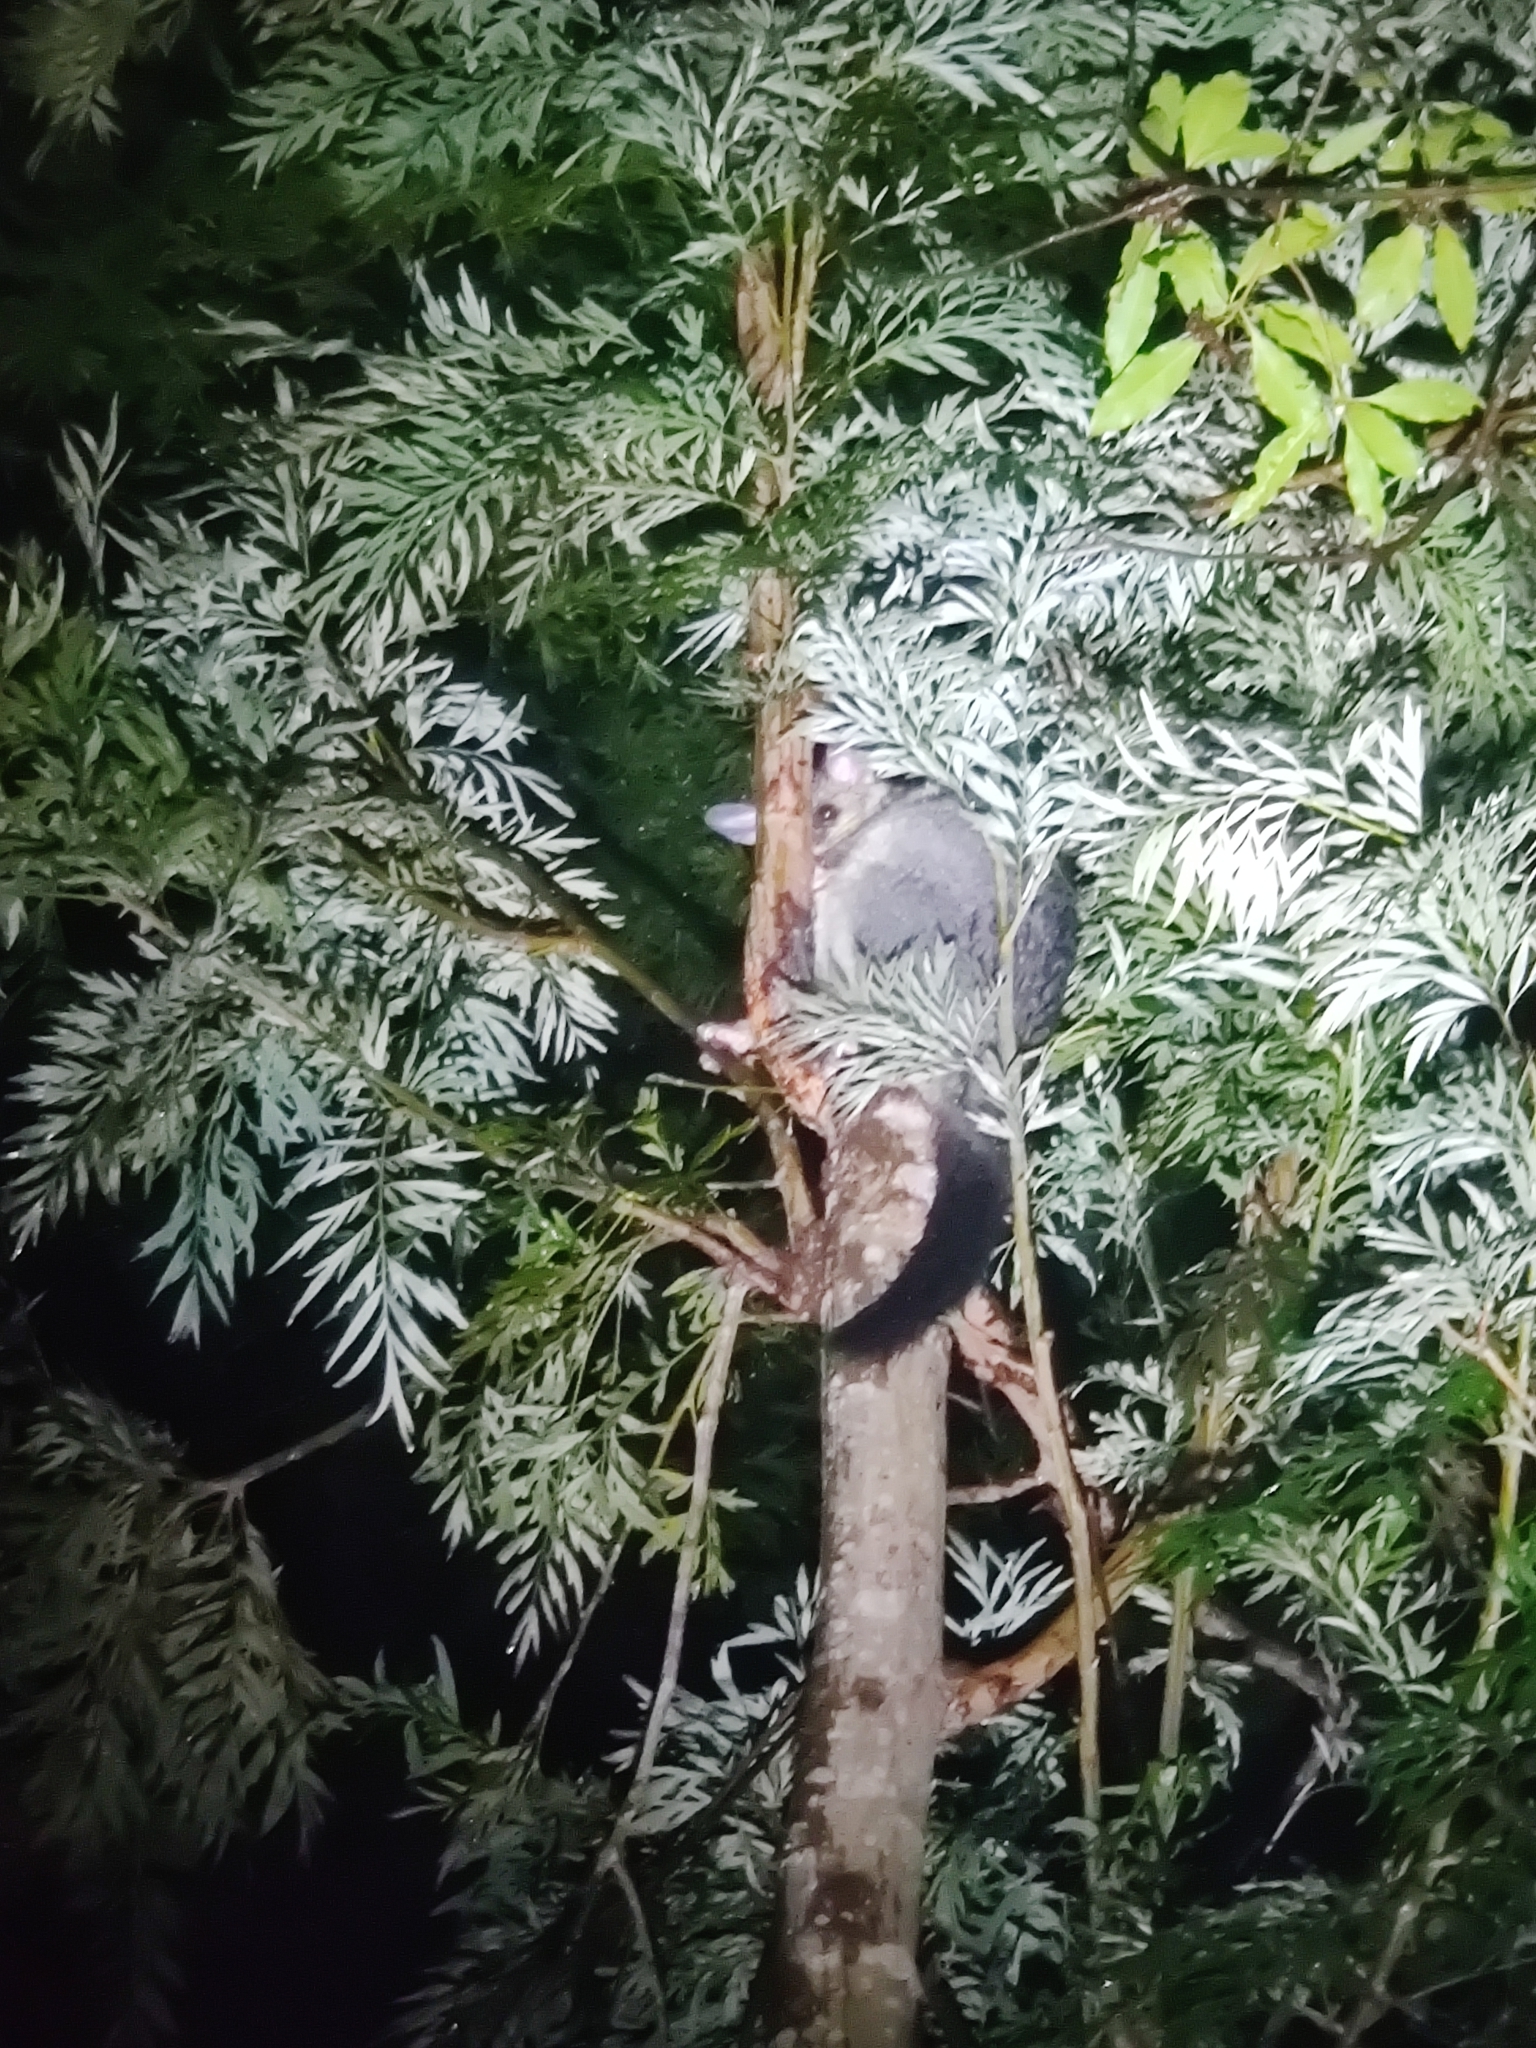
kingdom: Animalia
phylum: Chordata
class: Mammalia
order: Diprotodontia
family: Phalangeridae
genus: Trichosurus
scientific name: Trichosurus vulpecula
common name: Common brushtail
